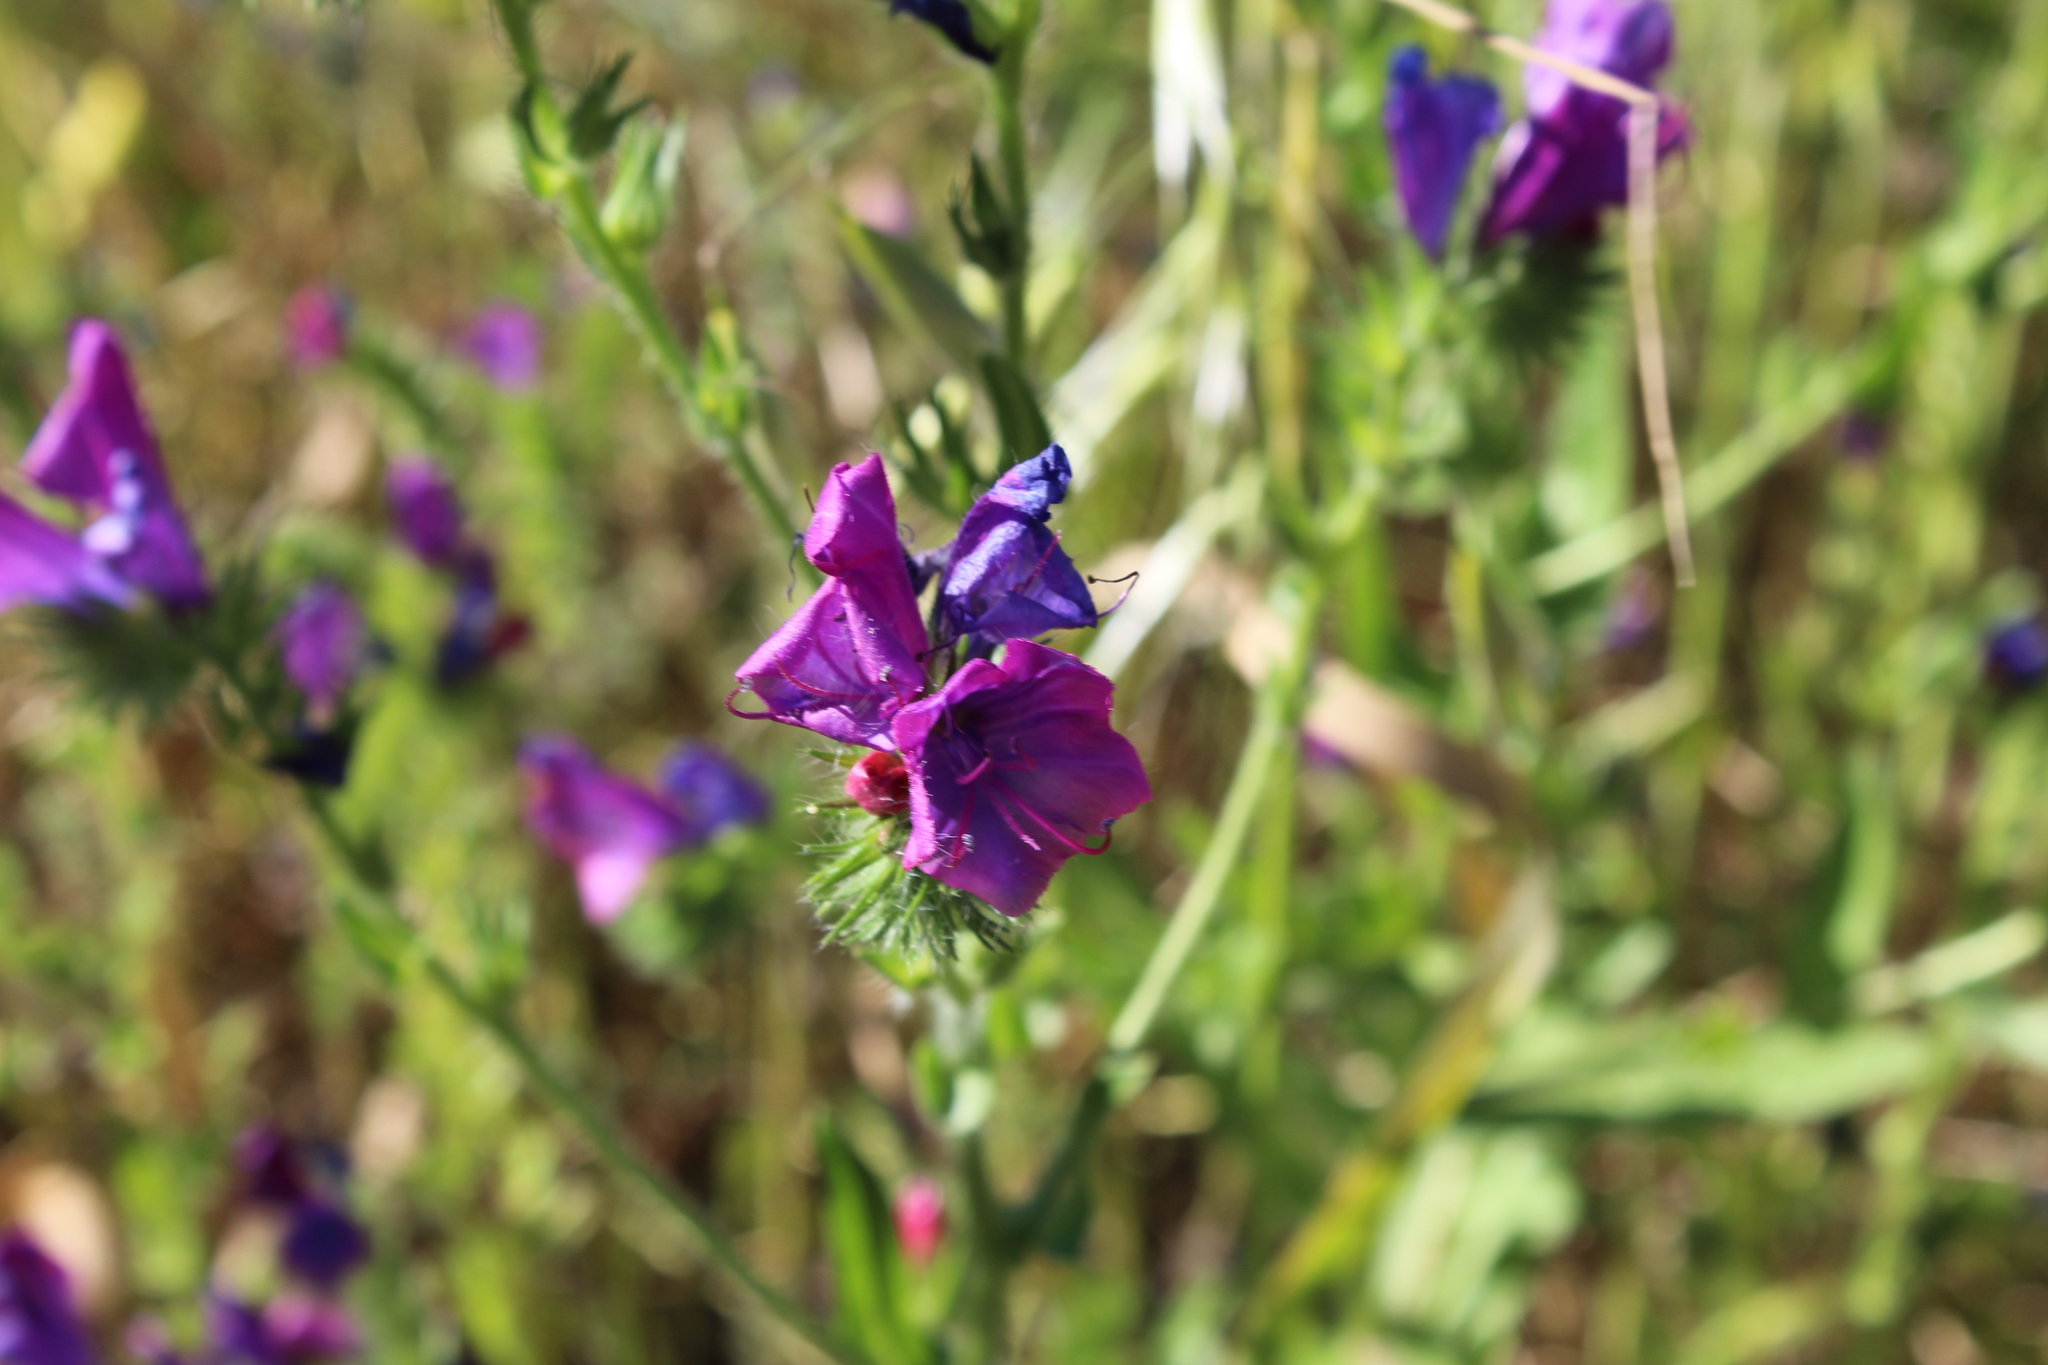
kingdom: Plantae
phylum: Tracheophyta
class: Magnoliopsida
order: Boraginales
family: Boraginaceae
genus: Echium
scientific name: Echium plantagineum
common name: Purple viper's-bugloss
